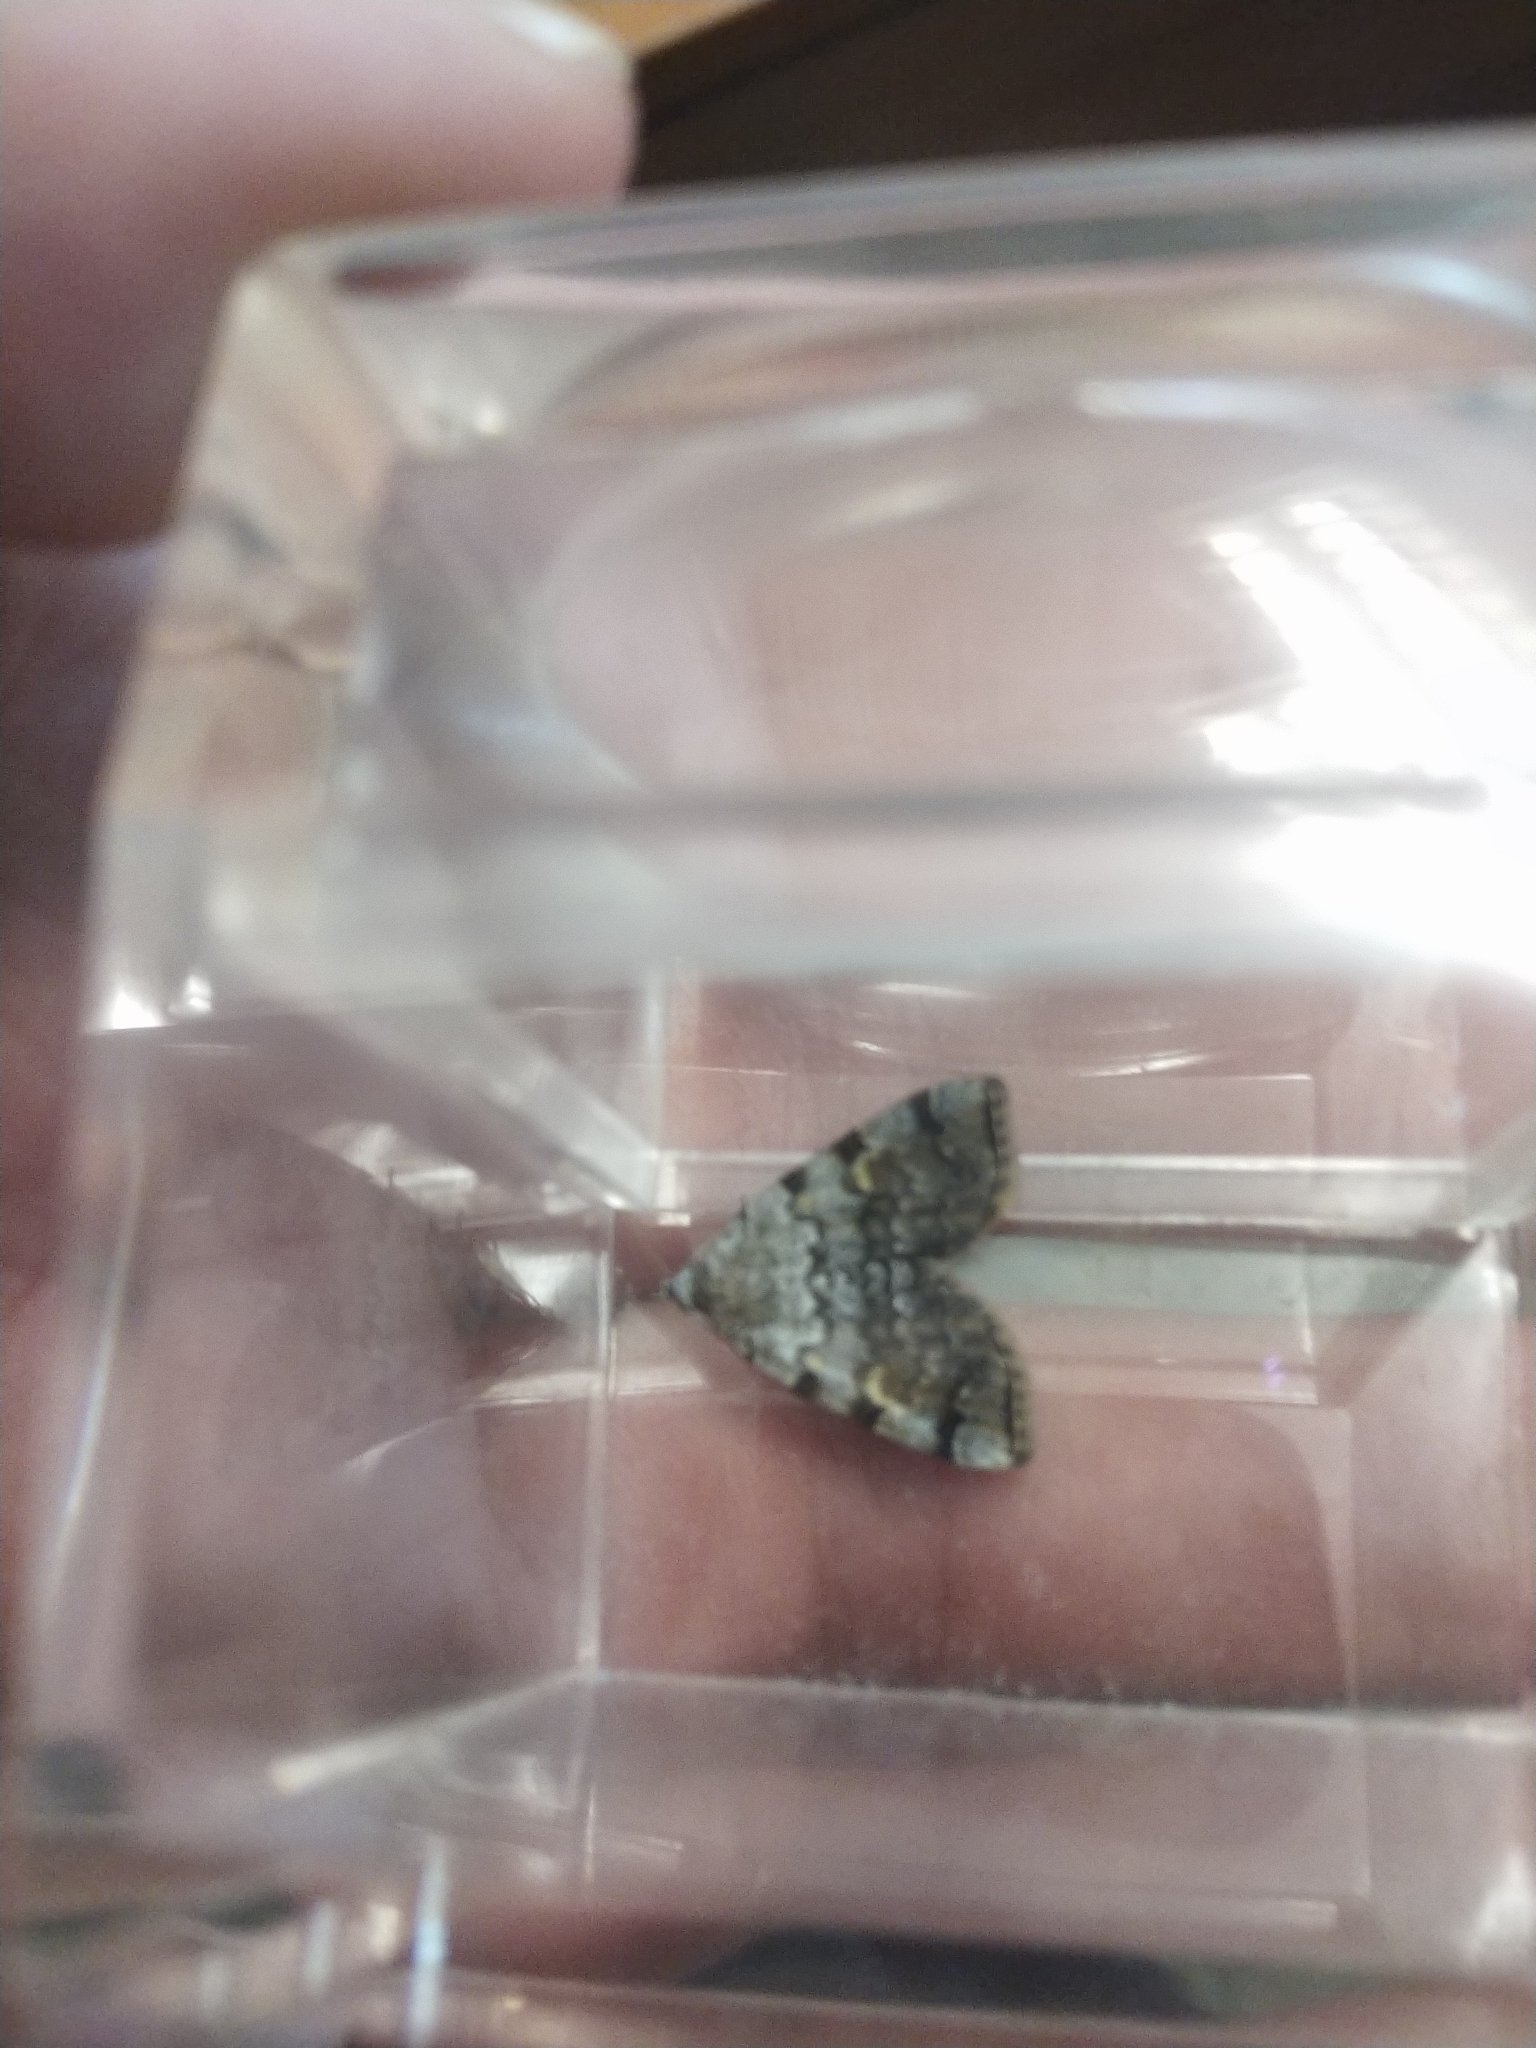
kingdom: Animalia
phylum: Arthropoda
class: Insecta
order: Lepidoptera
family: Erebidae
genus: Idia
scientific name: Idia americalis
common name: American idia moth
